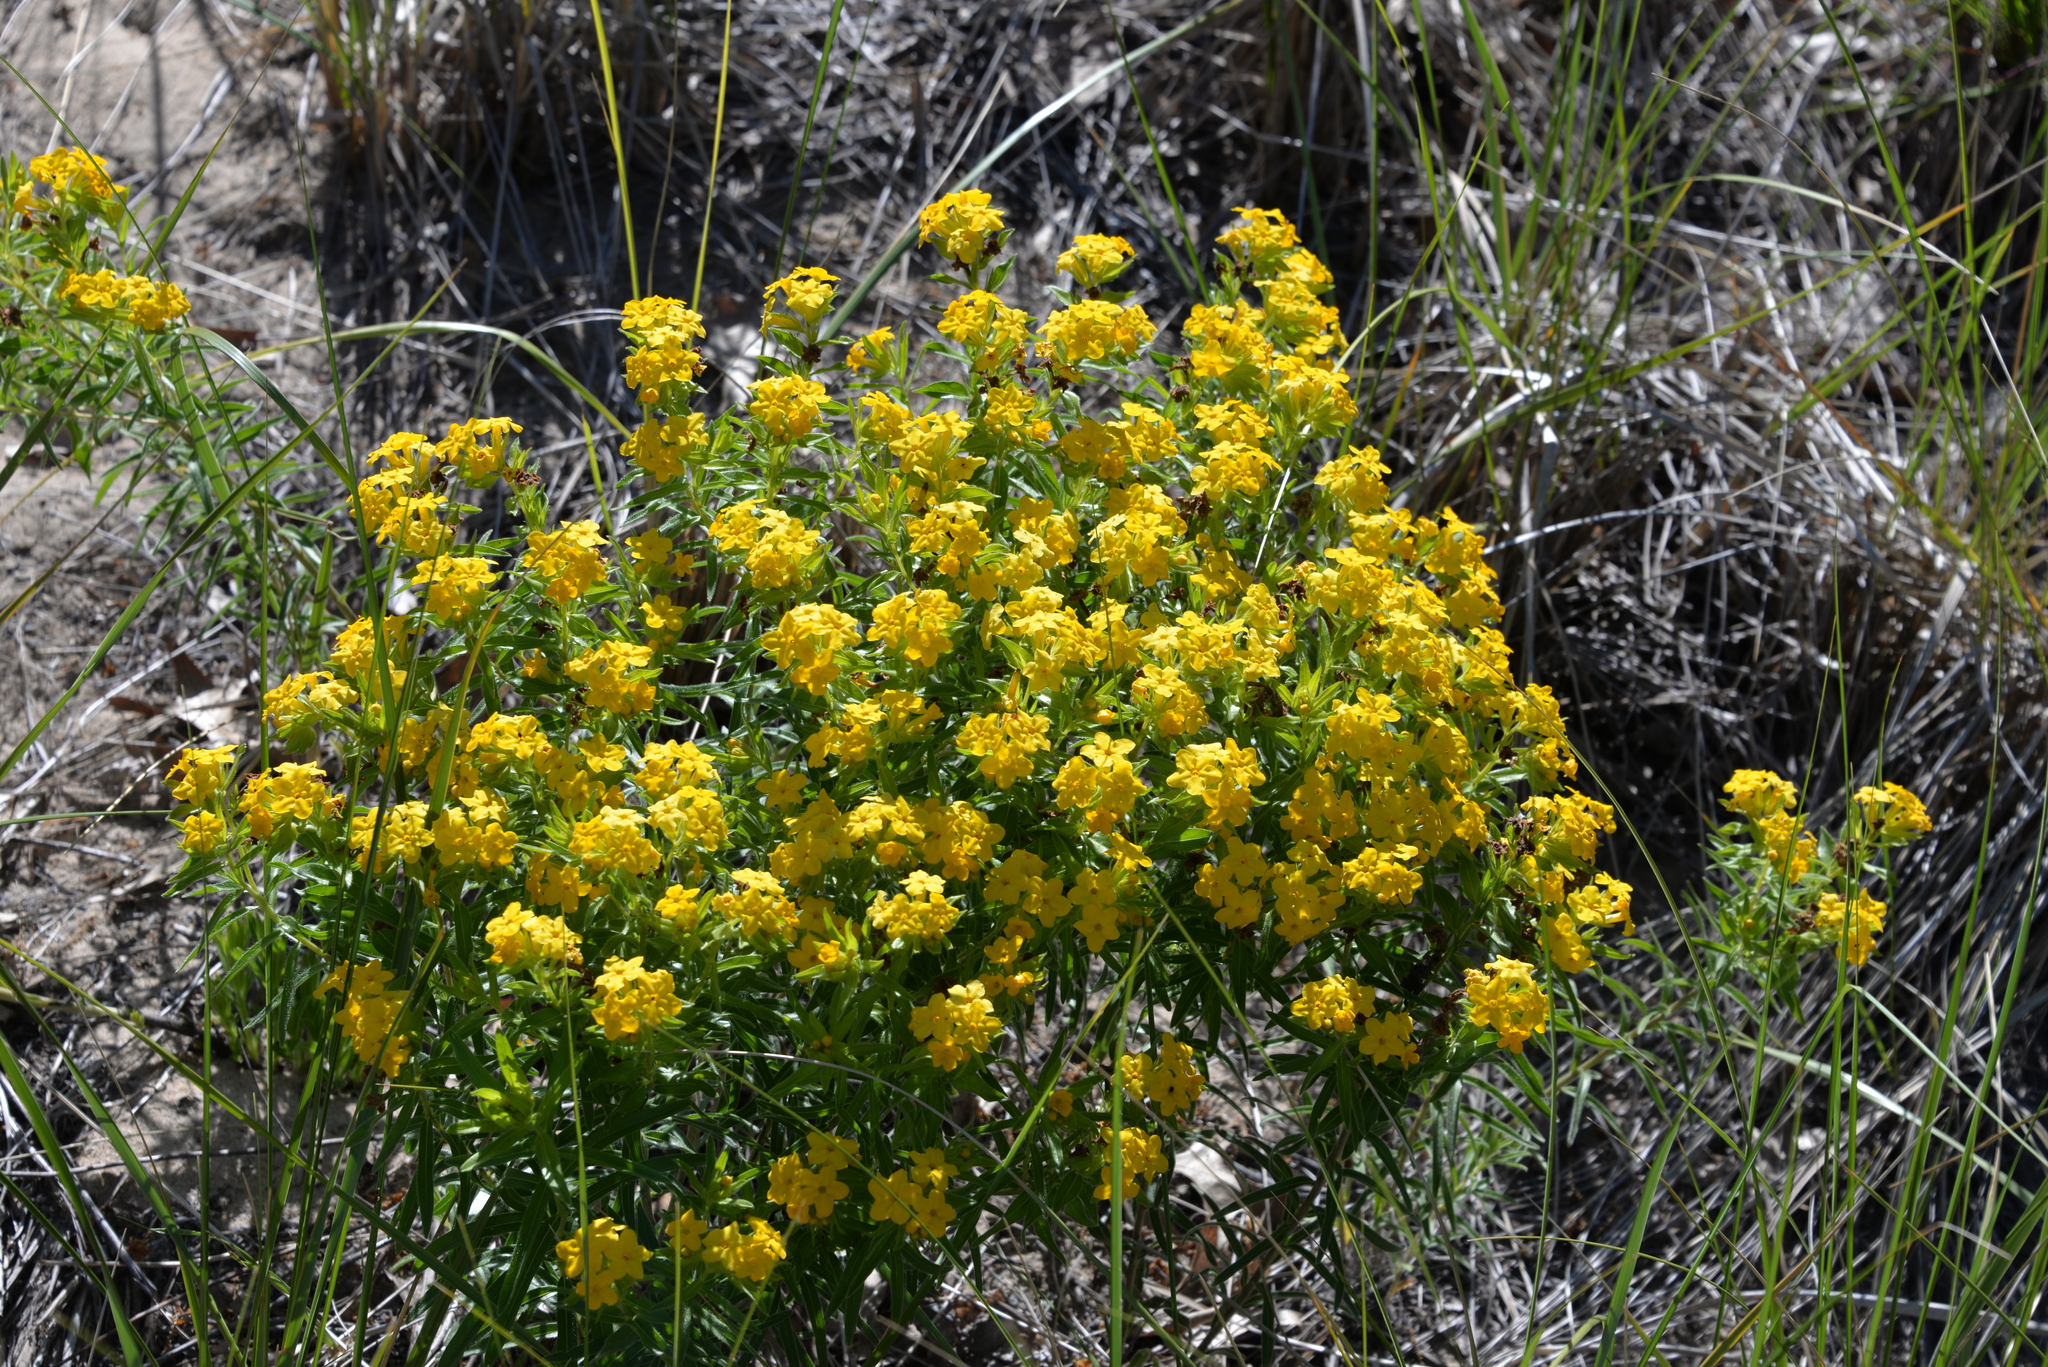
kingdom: Plantae
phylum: Tracheophyta
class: Magnoliopsida
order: Boraginales
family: Boraginaceae
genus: Lithospermum
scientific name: Lithospermum canescens
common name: Hoary puccoon
